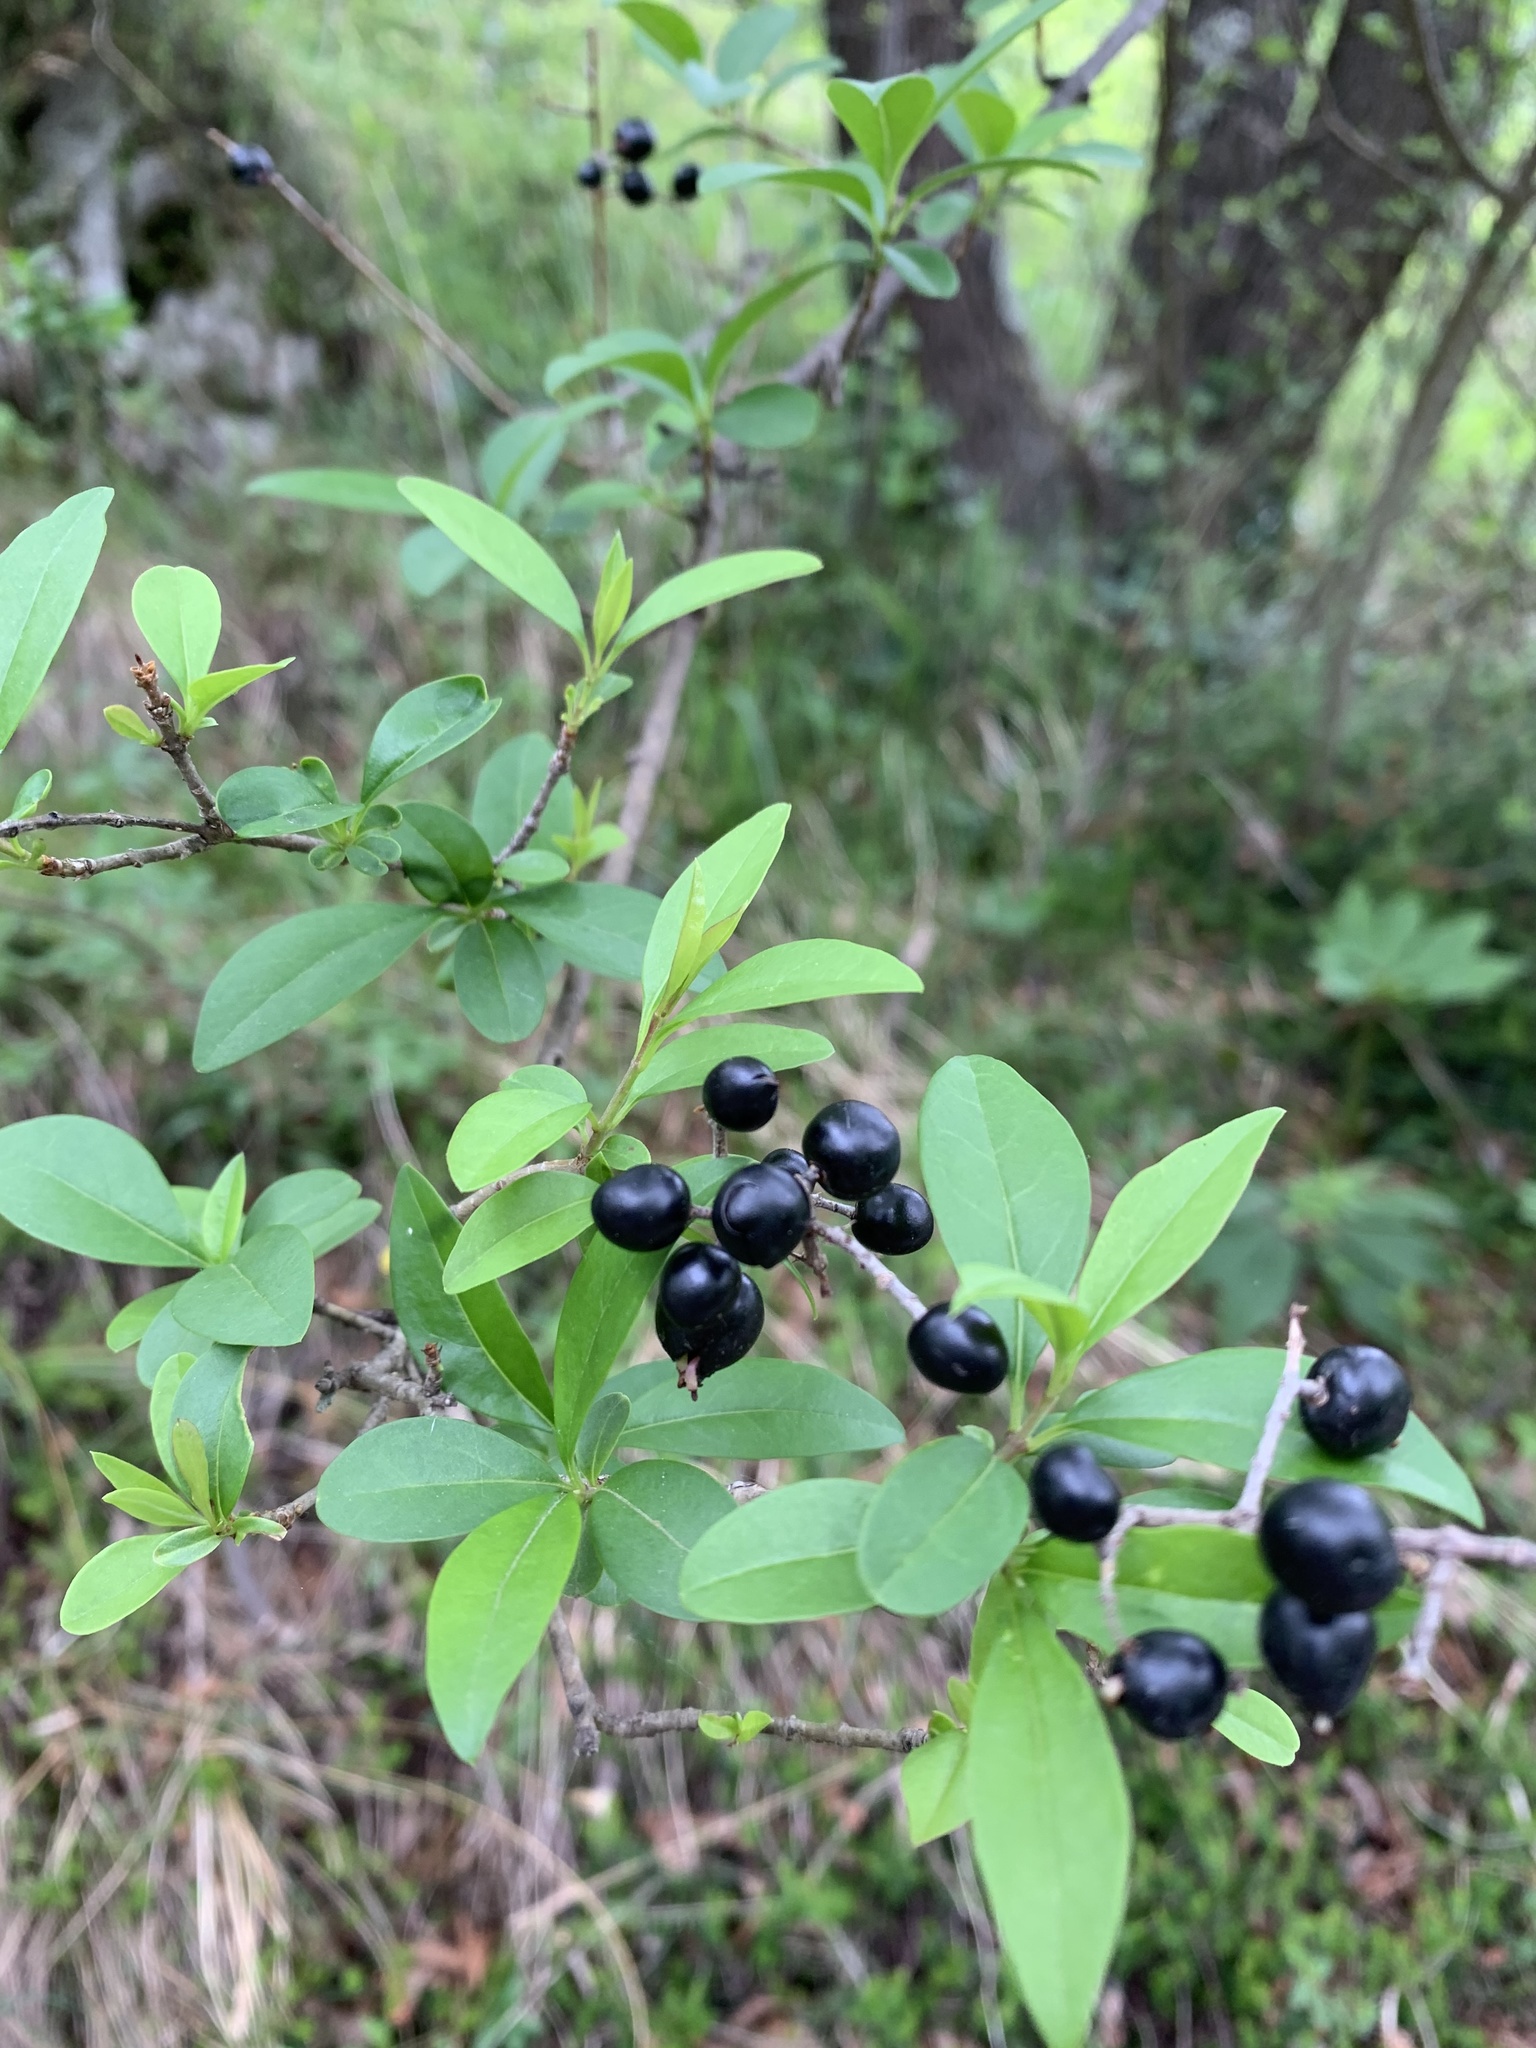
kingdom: Plantae
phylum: Tracheophyta
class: Magnoliopsida
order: Lamiales
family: Oleaceae
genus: Ligustrum
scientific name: Ligustrum vulgare
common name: Wild privet
